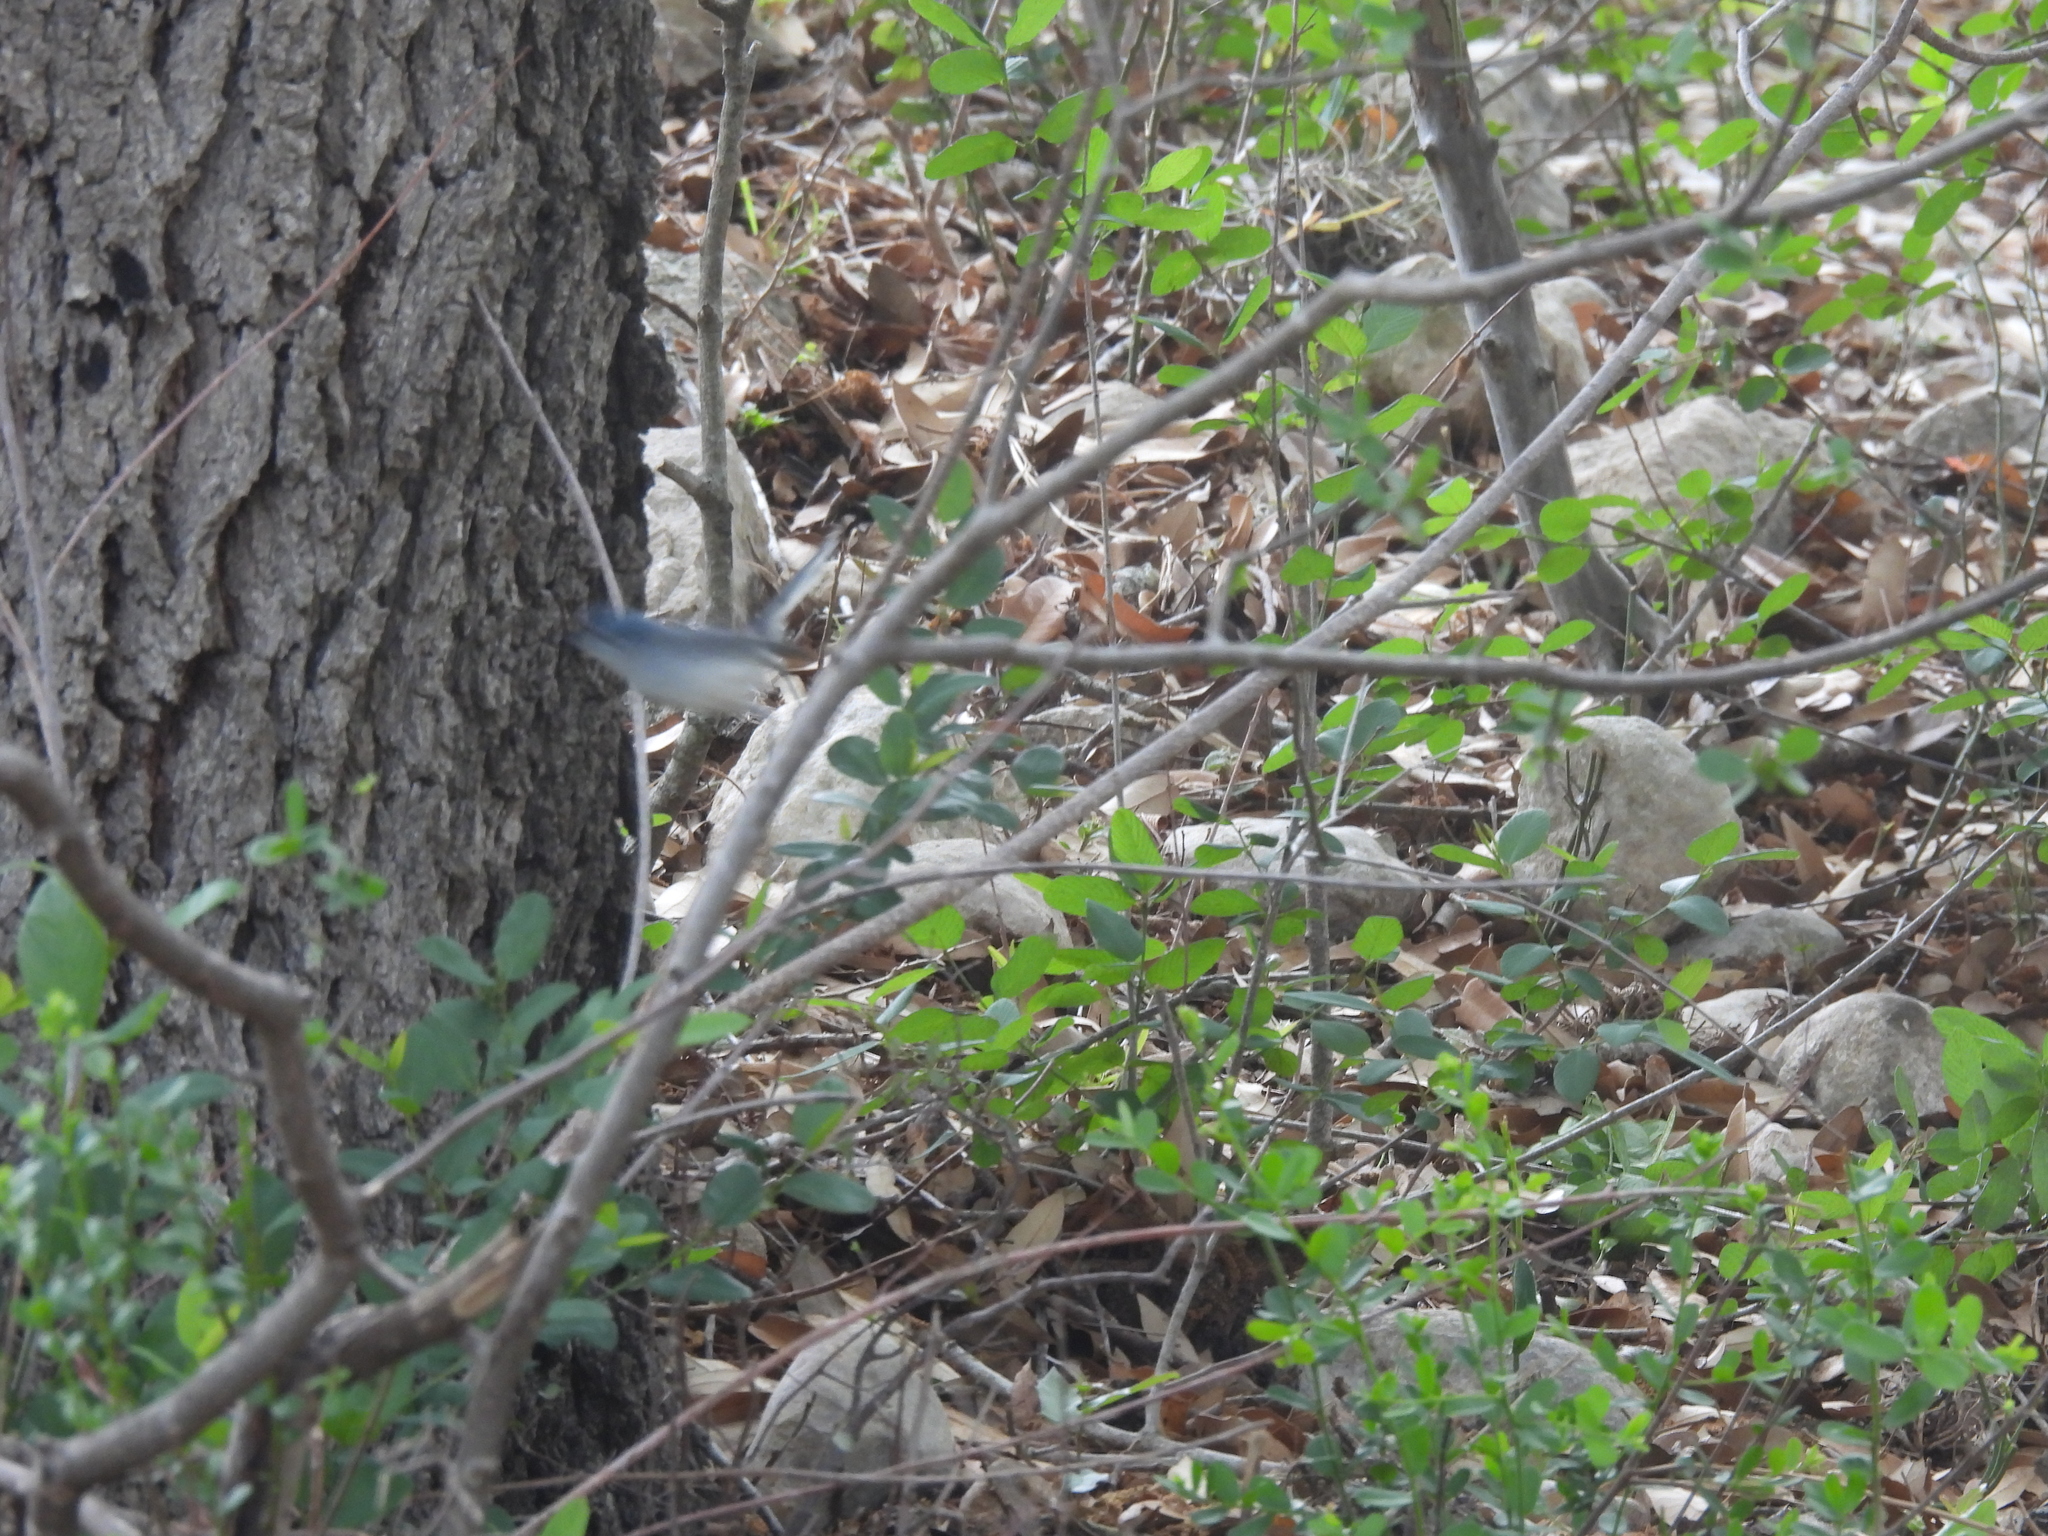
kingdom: Animalia
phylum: Chordata
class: Aves
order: Passeriformes
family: Polioptilidae
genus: Polioptila
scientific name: Polioptila caerulea
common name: Blue-gray gnatcatcher
